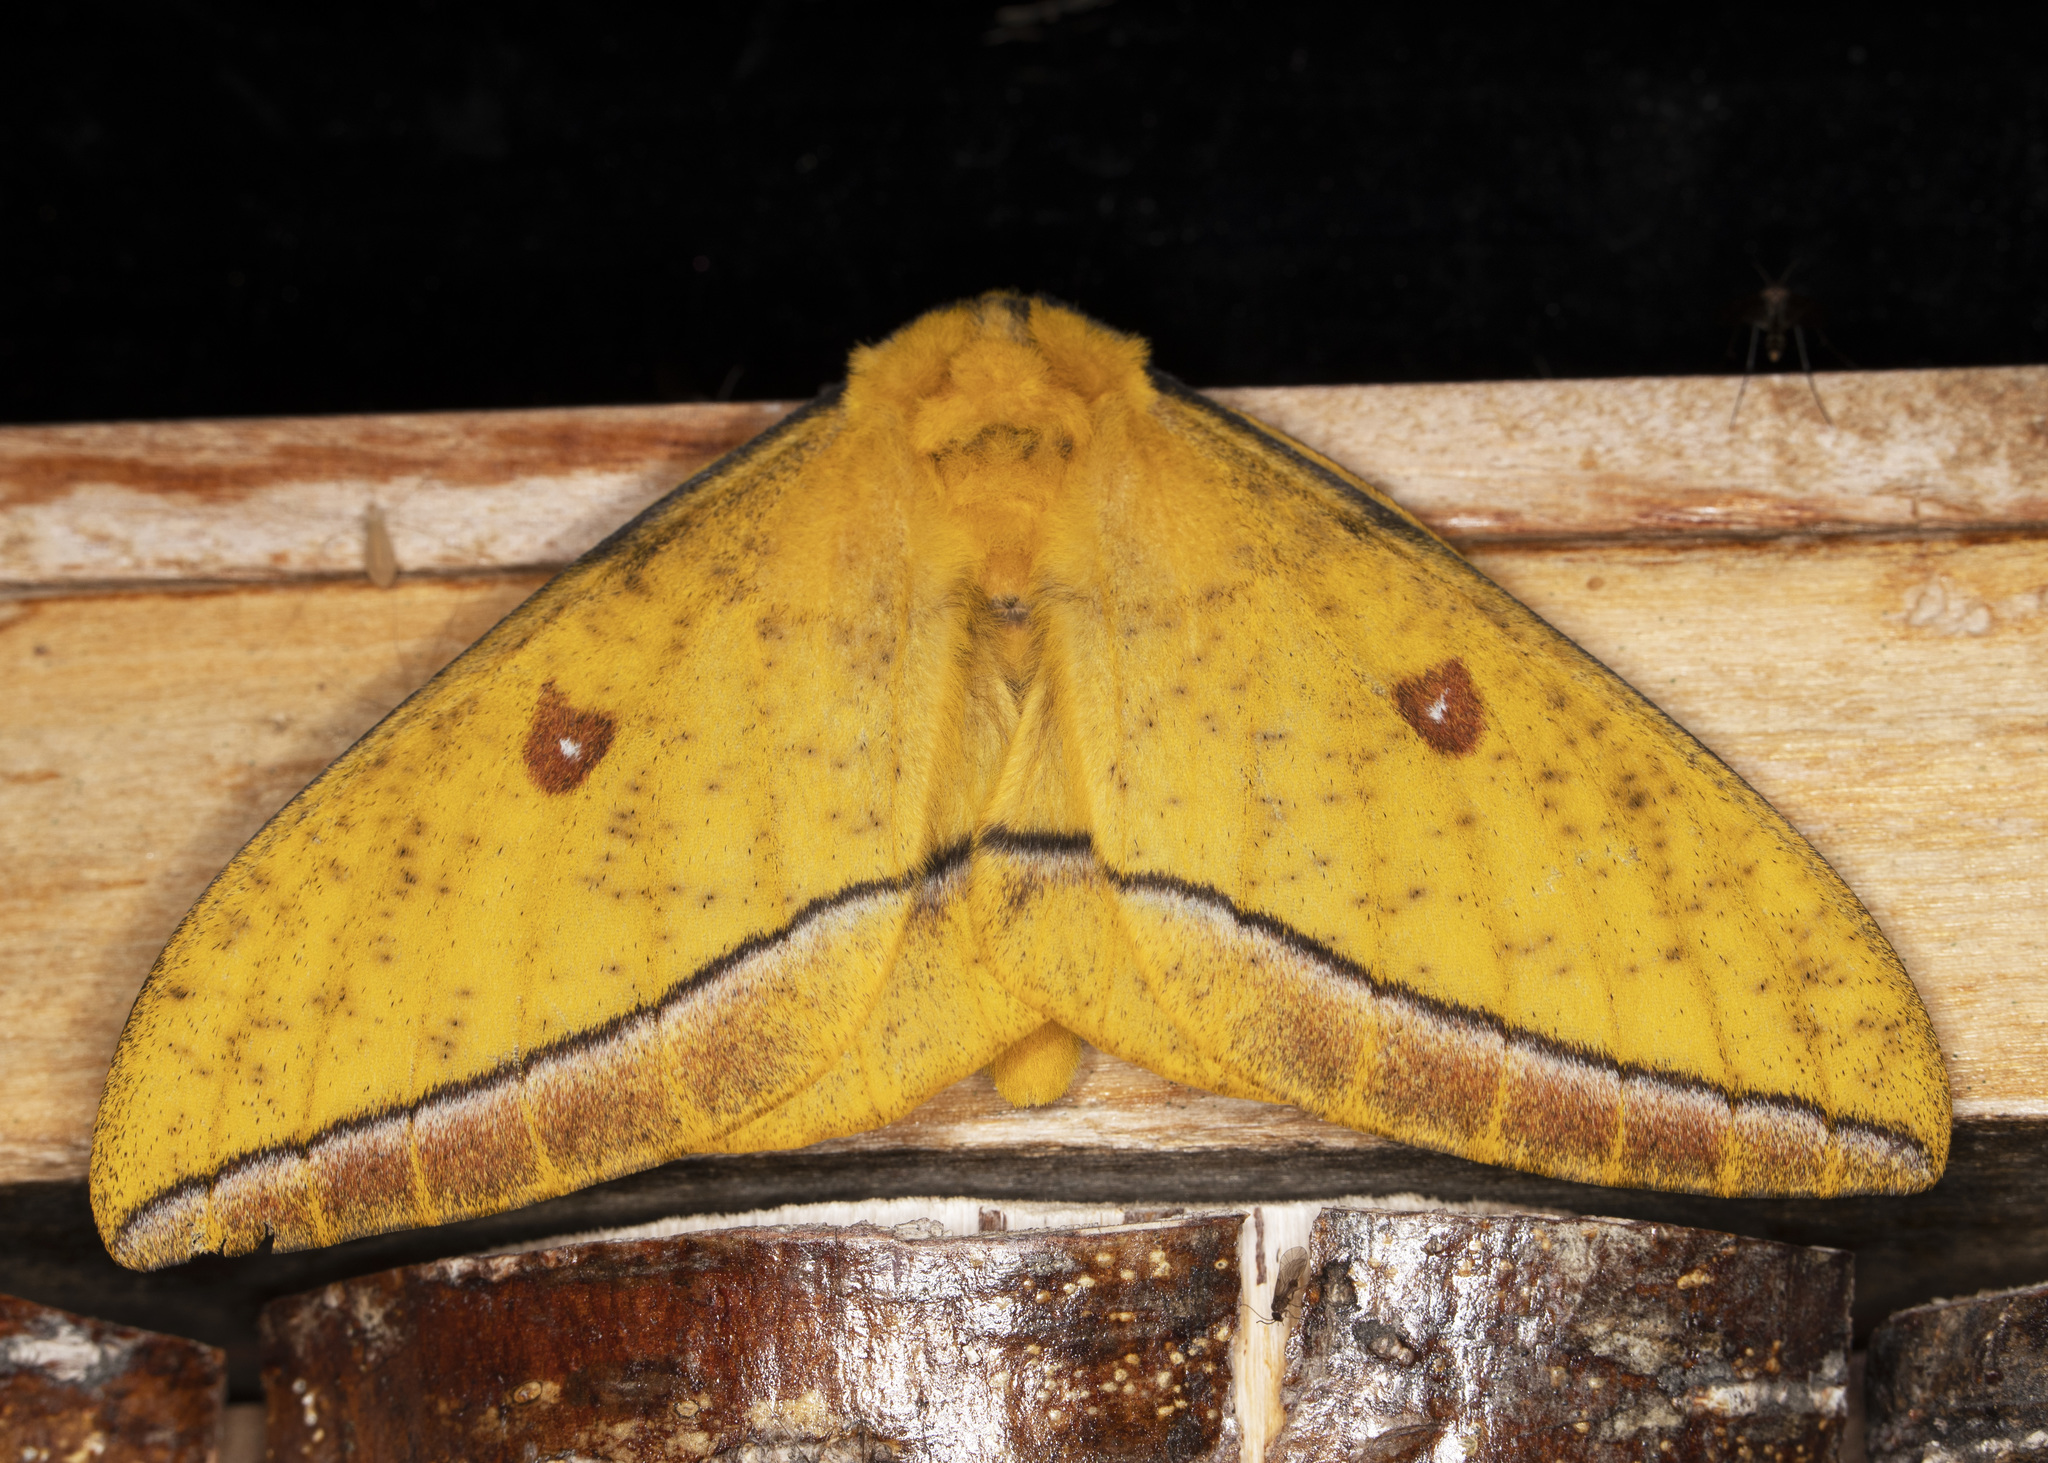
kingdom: Animalia
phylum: Arthropoda
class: Insecta
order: Lepidoptera
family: Saturniidae
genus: Bathyphlebia
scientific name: Bathyphlebia aglioides
